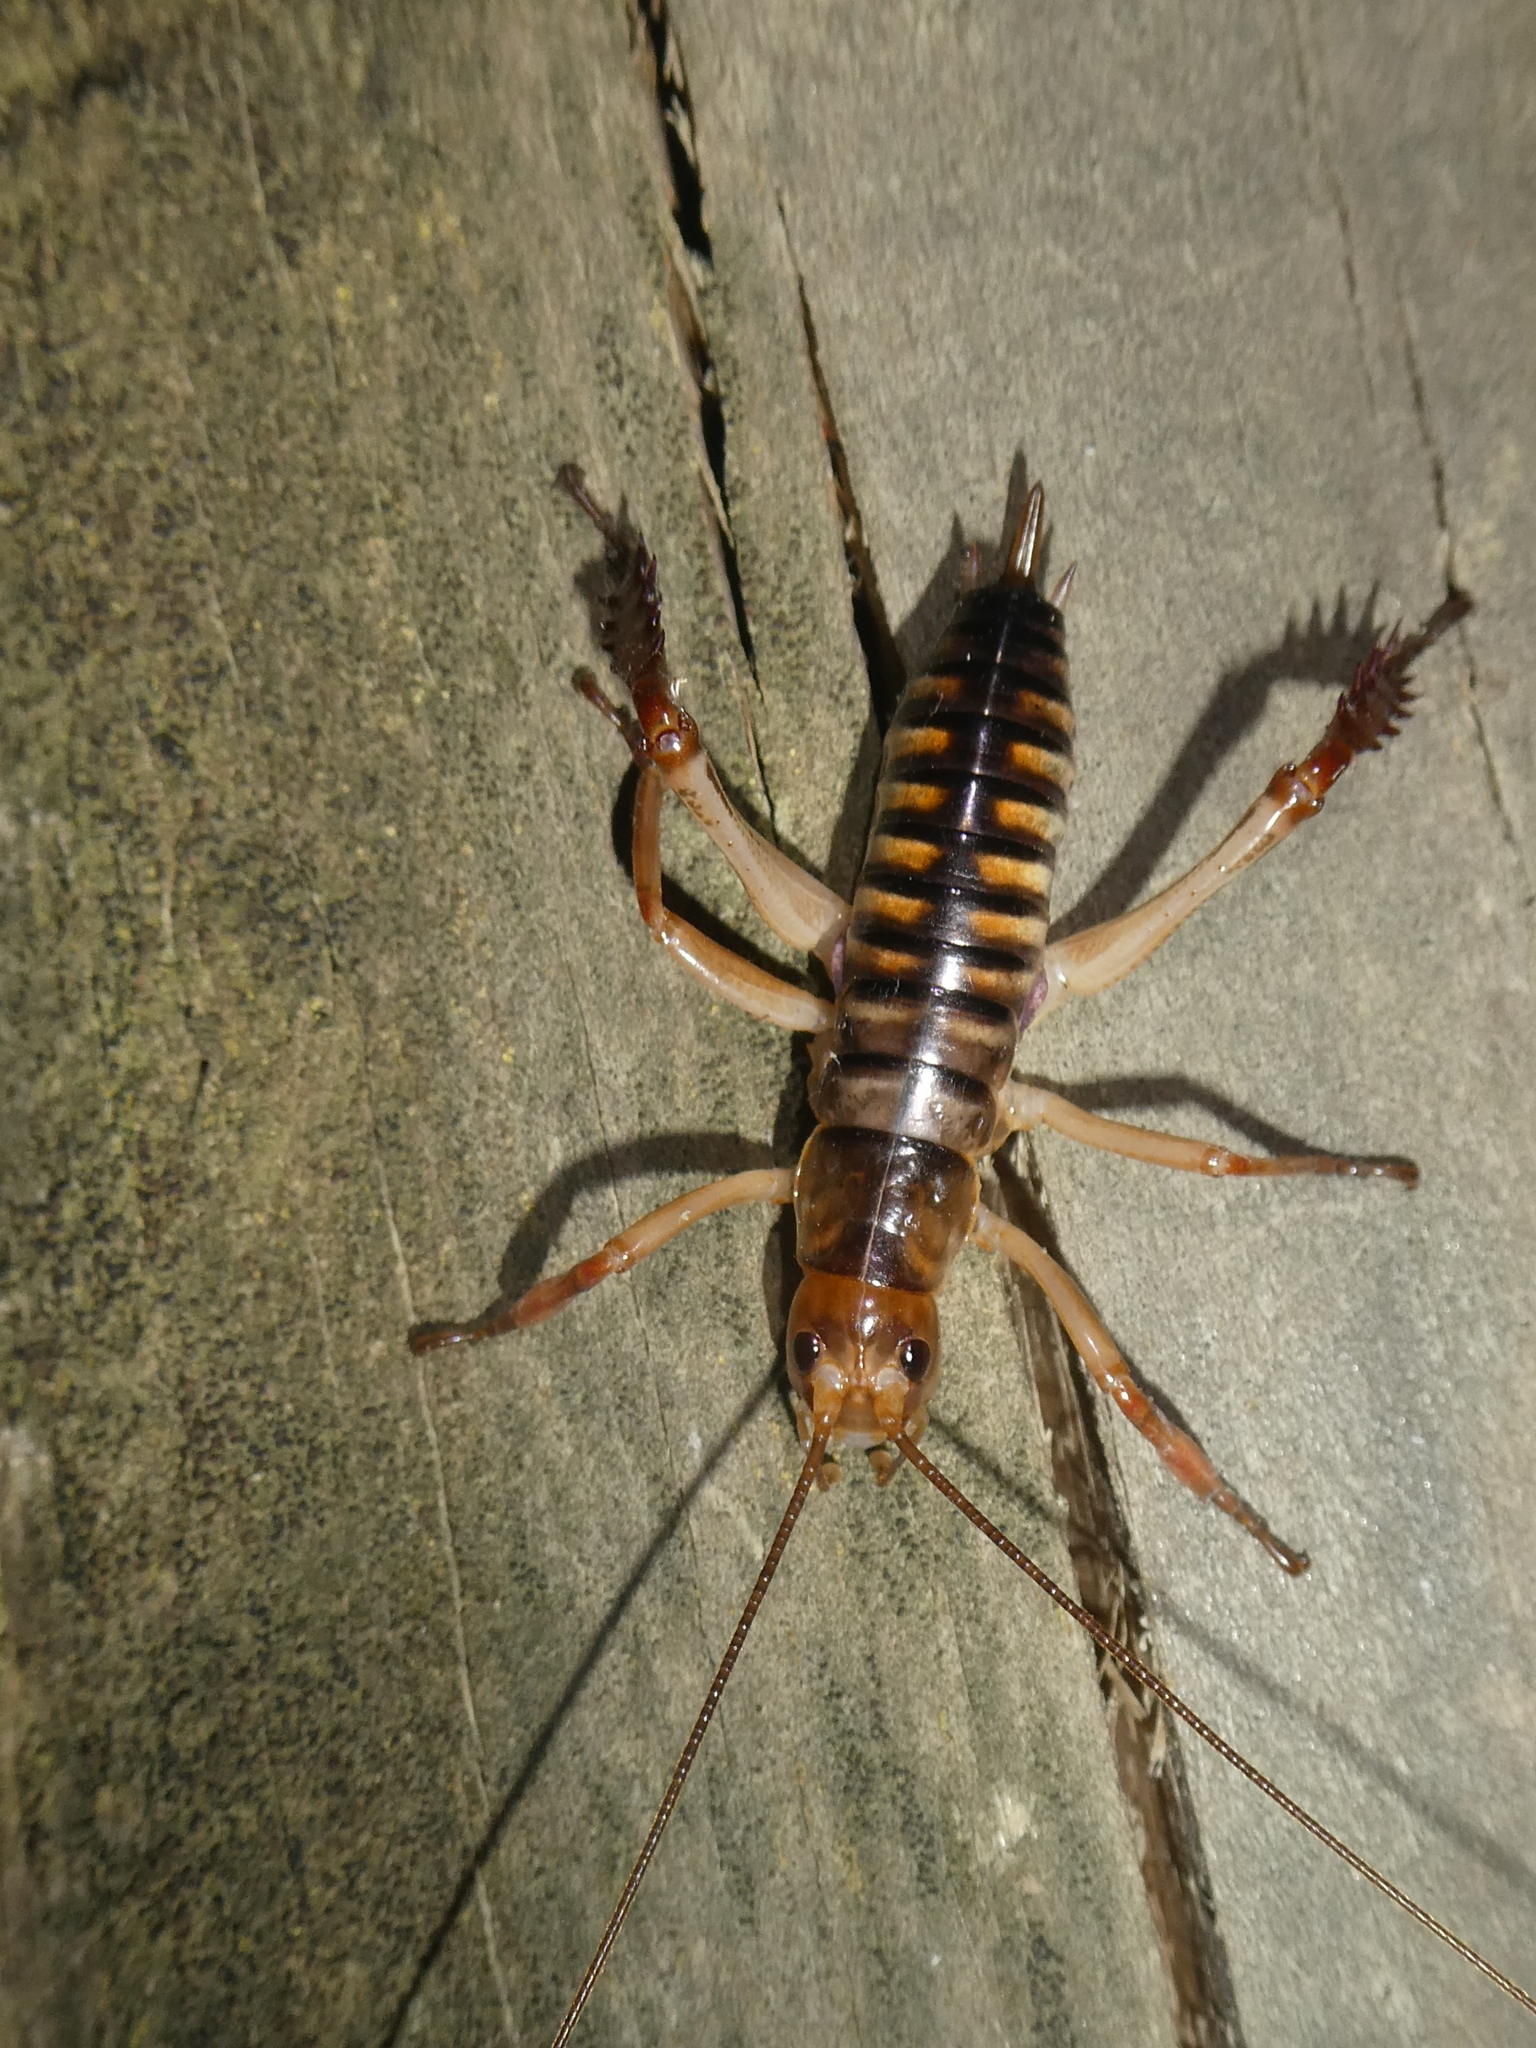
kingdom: Animalia
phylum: Arthropoda
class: Insecta
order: Orthoptera
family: Anostostomatidae
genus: Hemideina
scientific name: Hemideina crassidens
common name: Wellington tree weta
